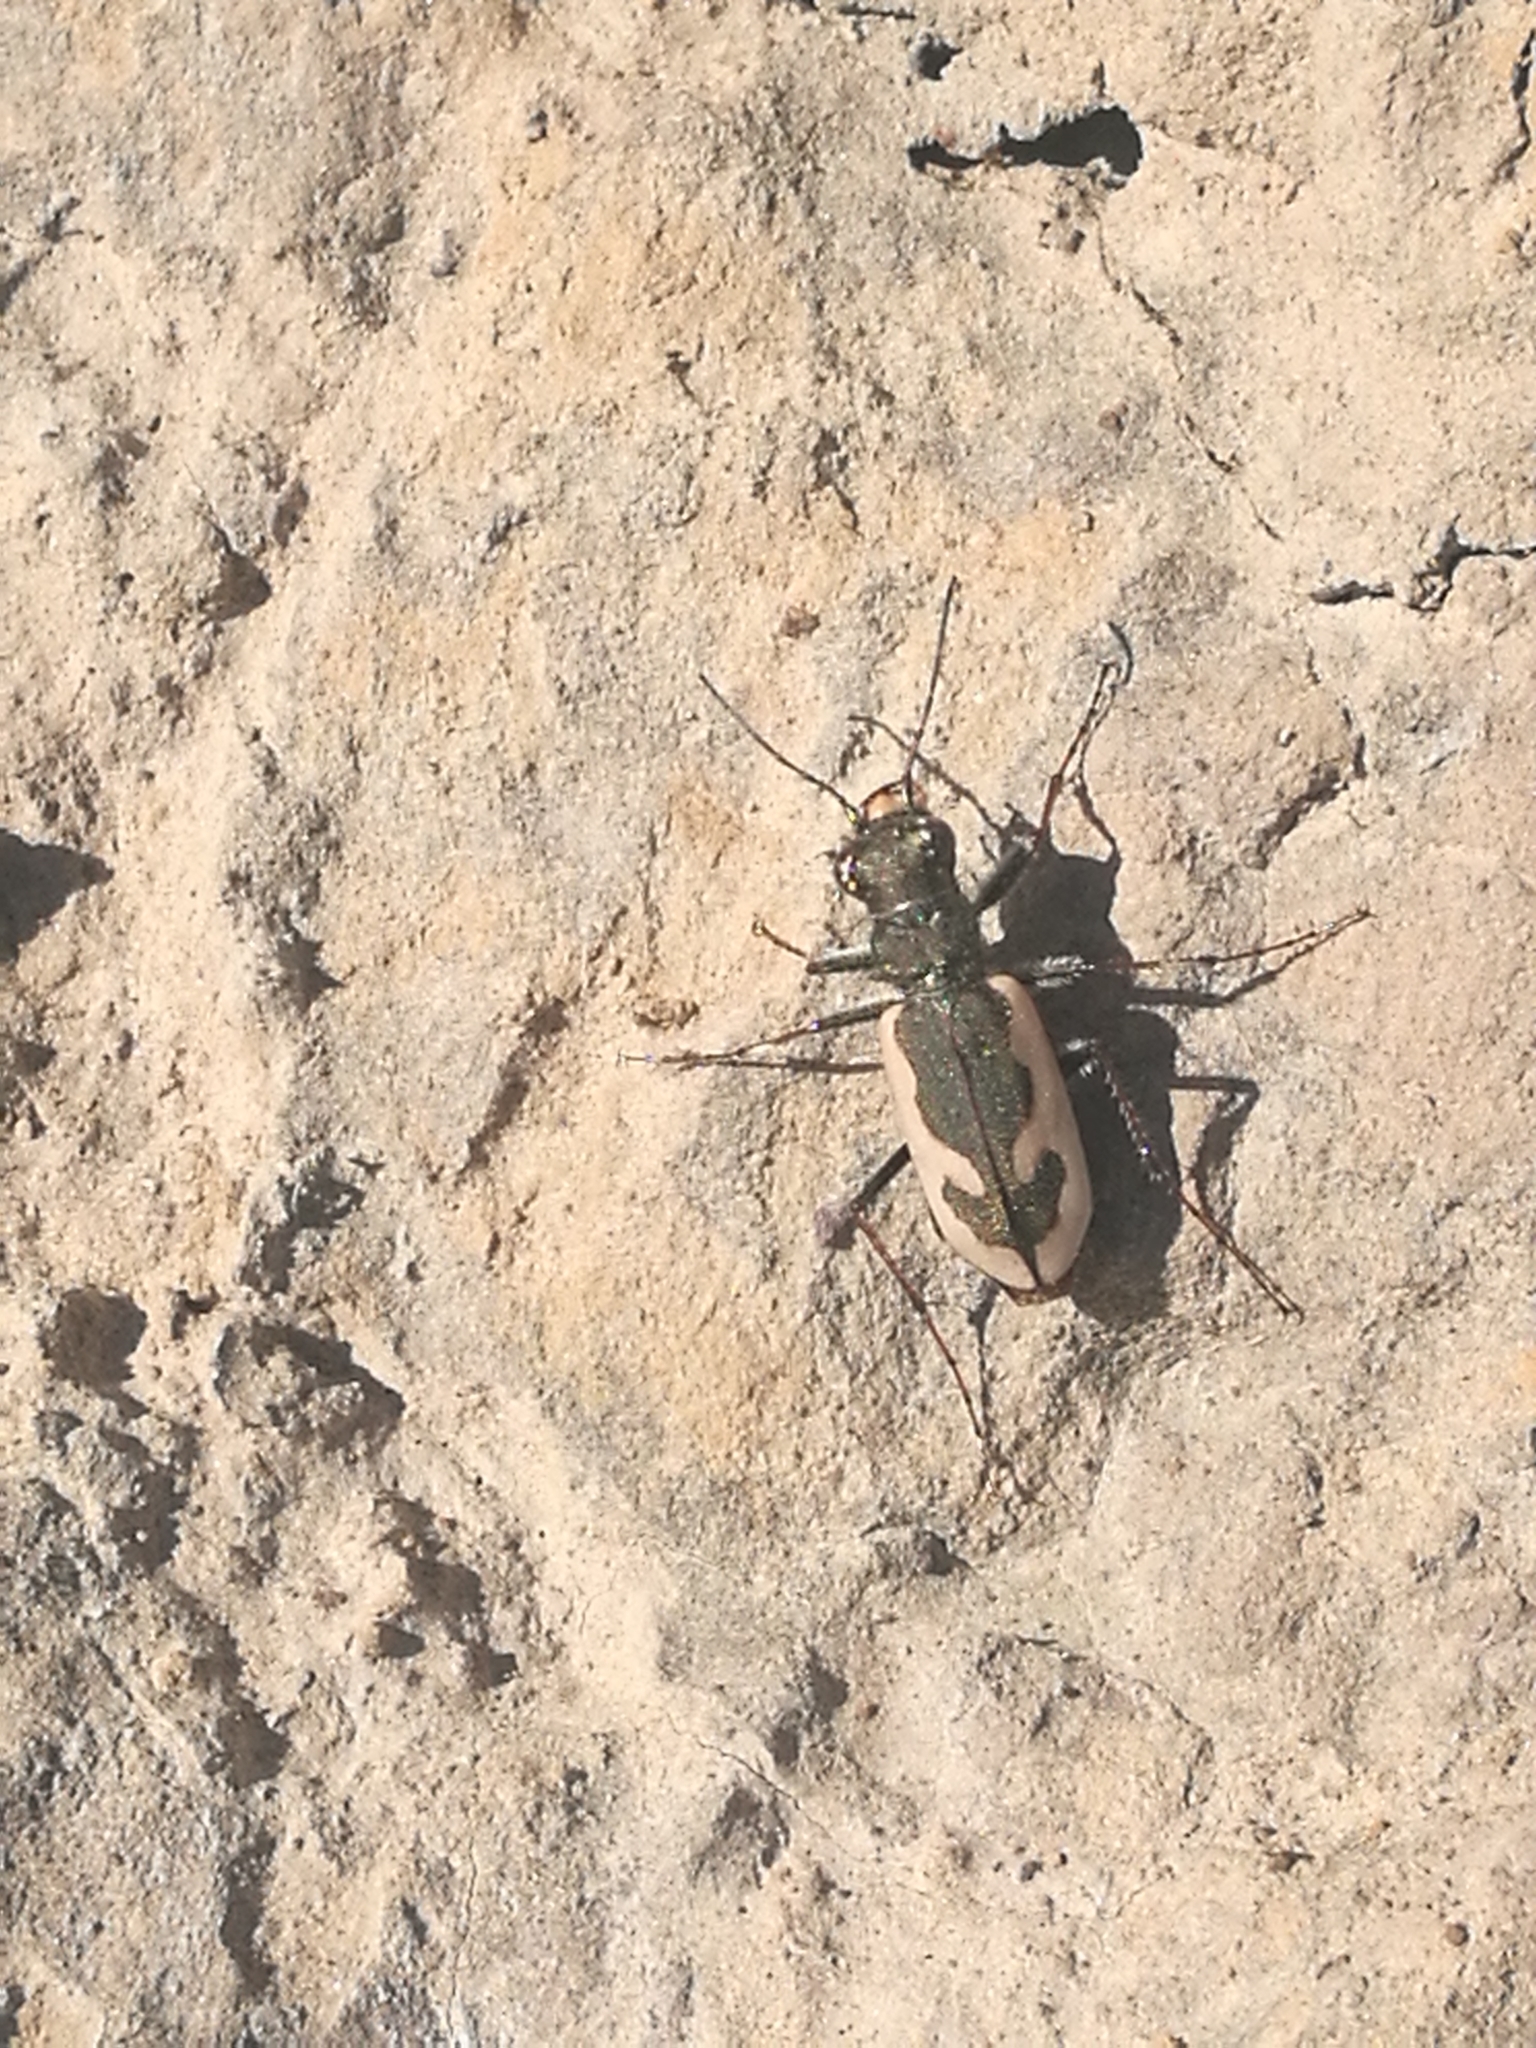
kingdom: Animalia
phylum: Arthropoda
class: Insecta
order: Coleoptera
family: Carabidae
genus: Neocicindela
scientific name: Neocicindela latecincta
